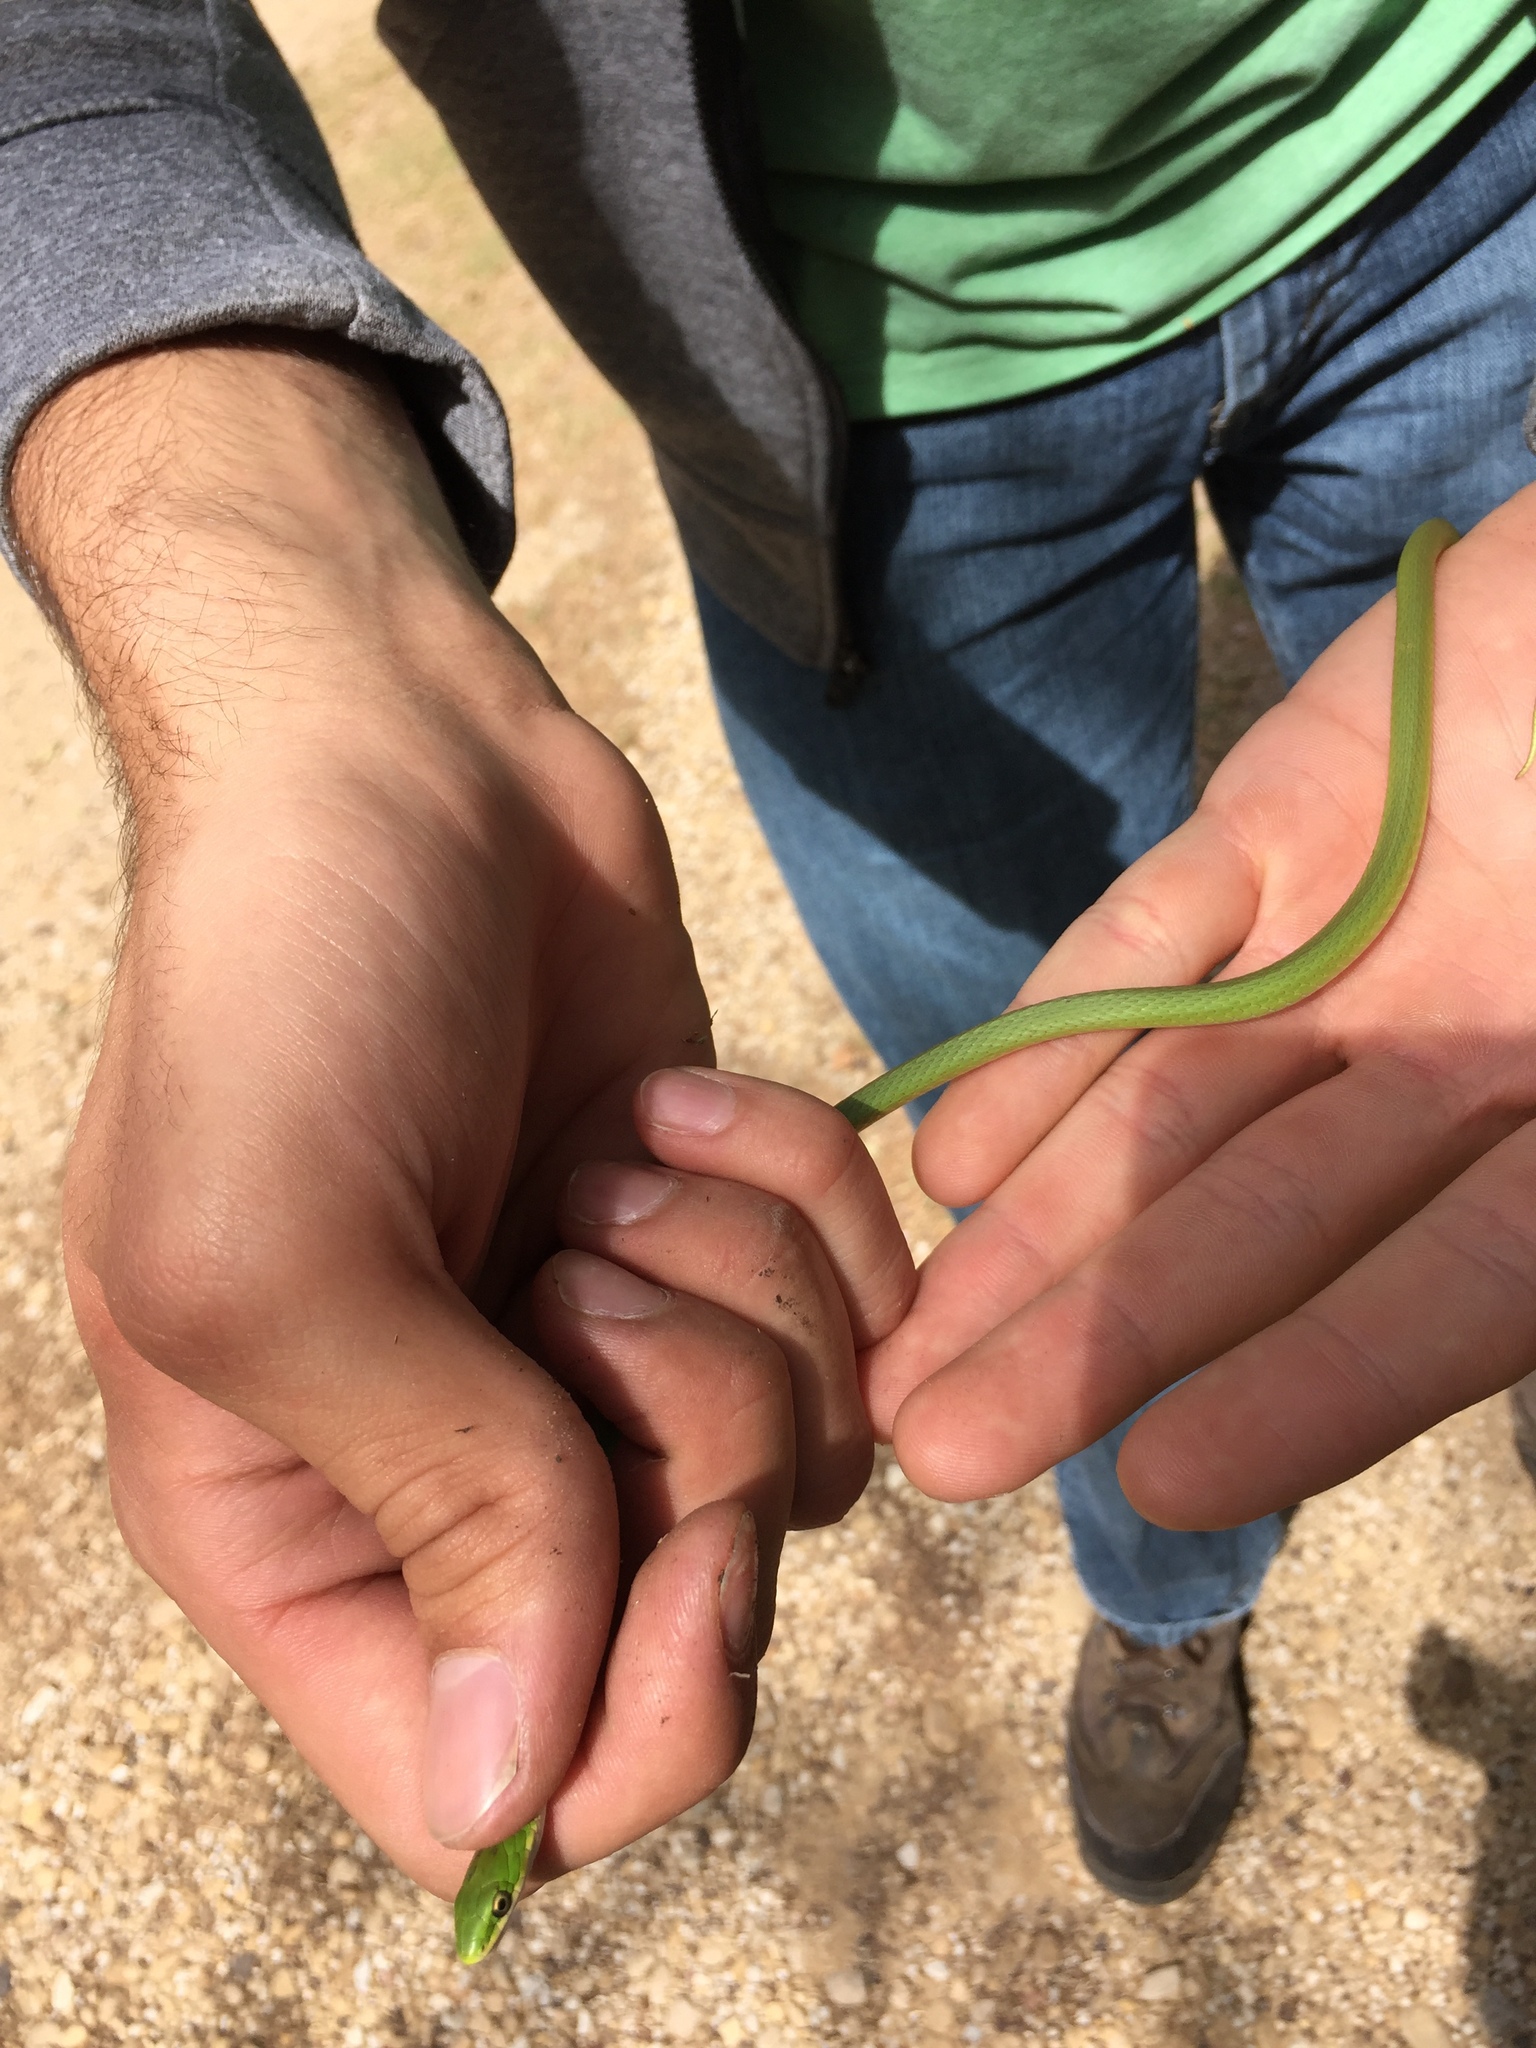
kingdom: Animalia
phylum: Chordata
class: Squamata
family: Colubridae
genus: Opheodrys
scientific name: Opheodrys aestivus
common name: Rough greensnake
